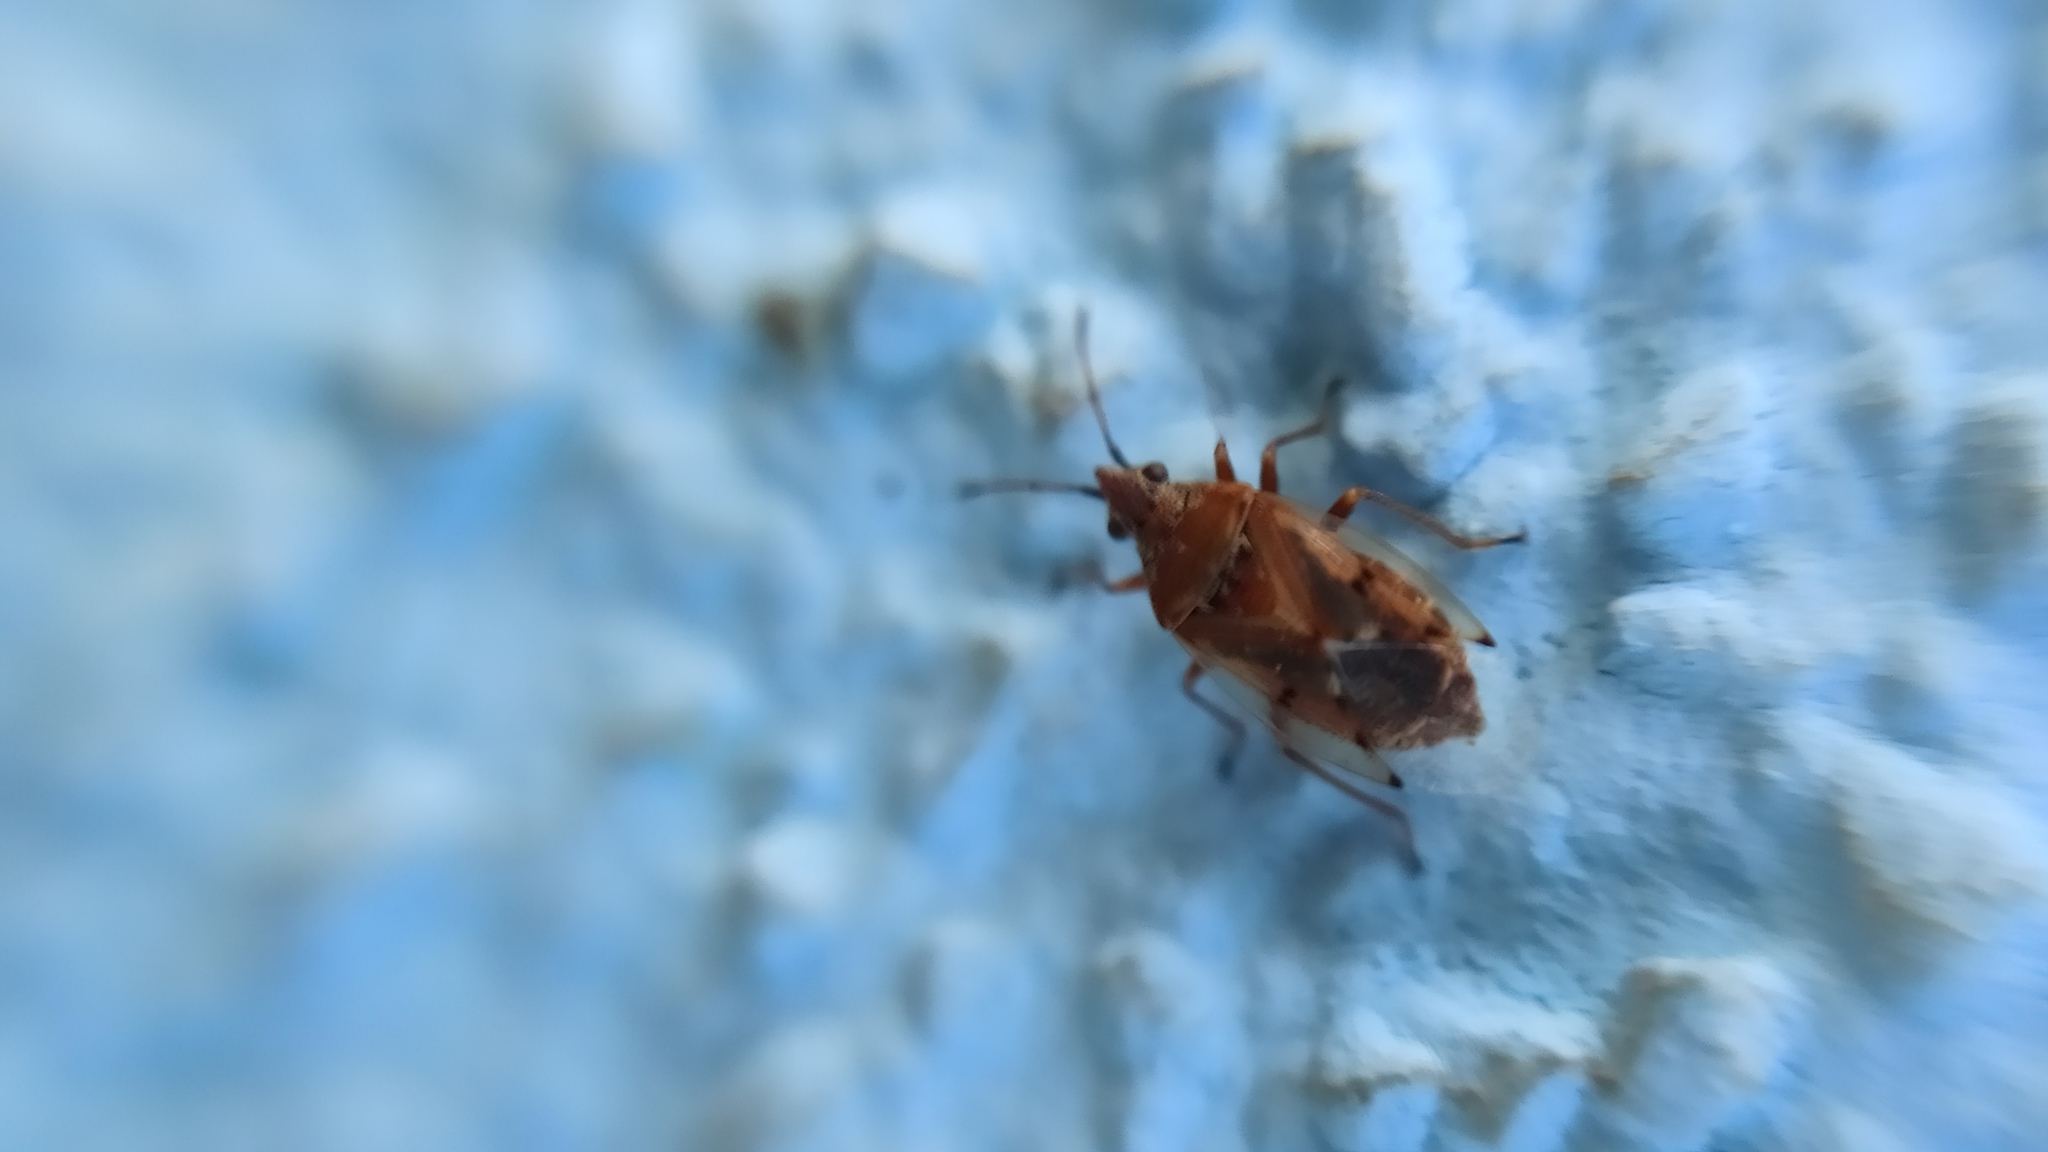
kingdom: Animalia
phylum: Arthropoda
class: Insecta
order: Hemiptera
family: Lygaeidae
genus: Kleidocerys
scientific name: Kleidocerys resedae
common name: Birch catkin bug
